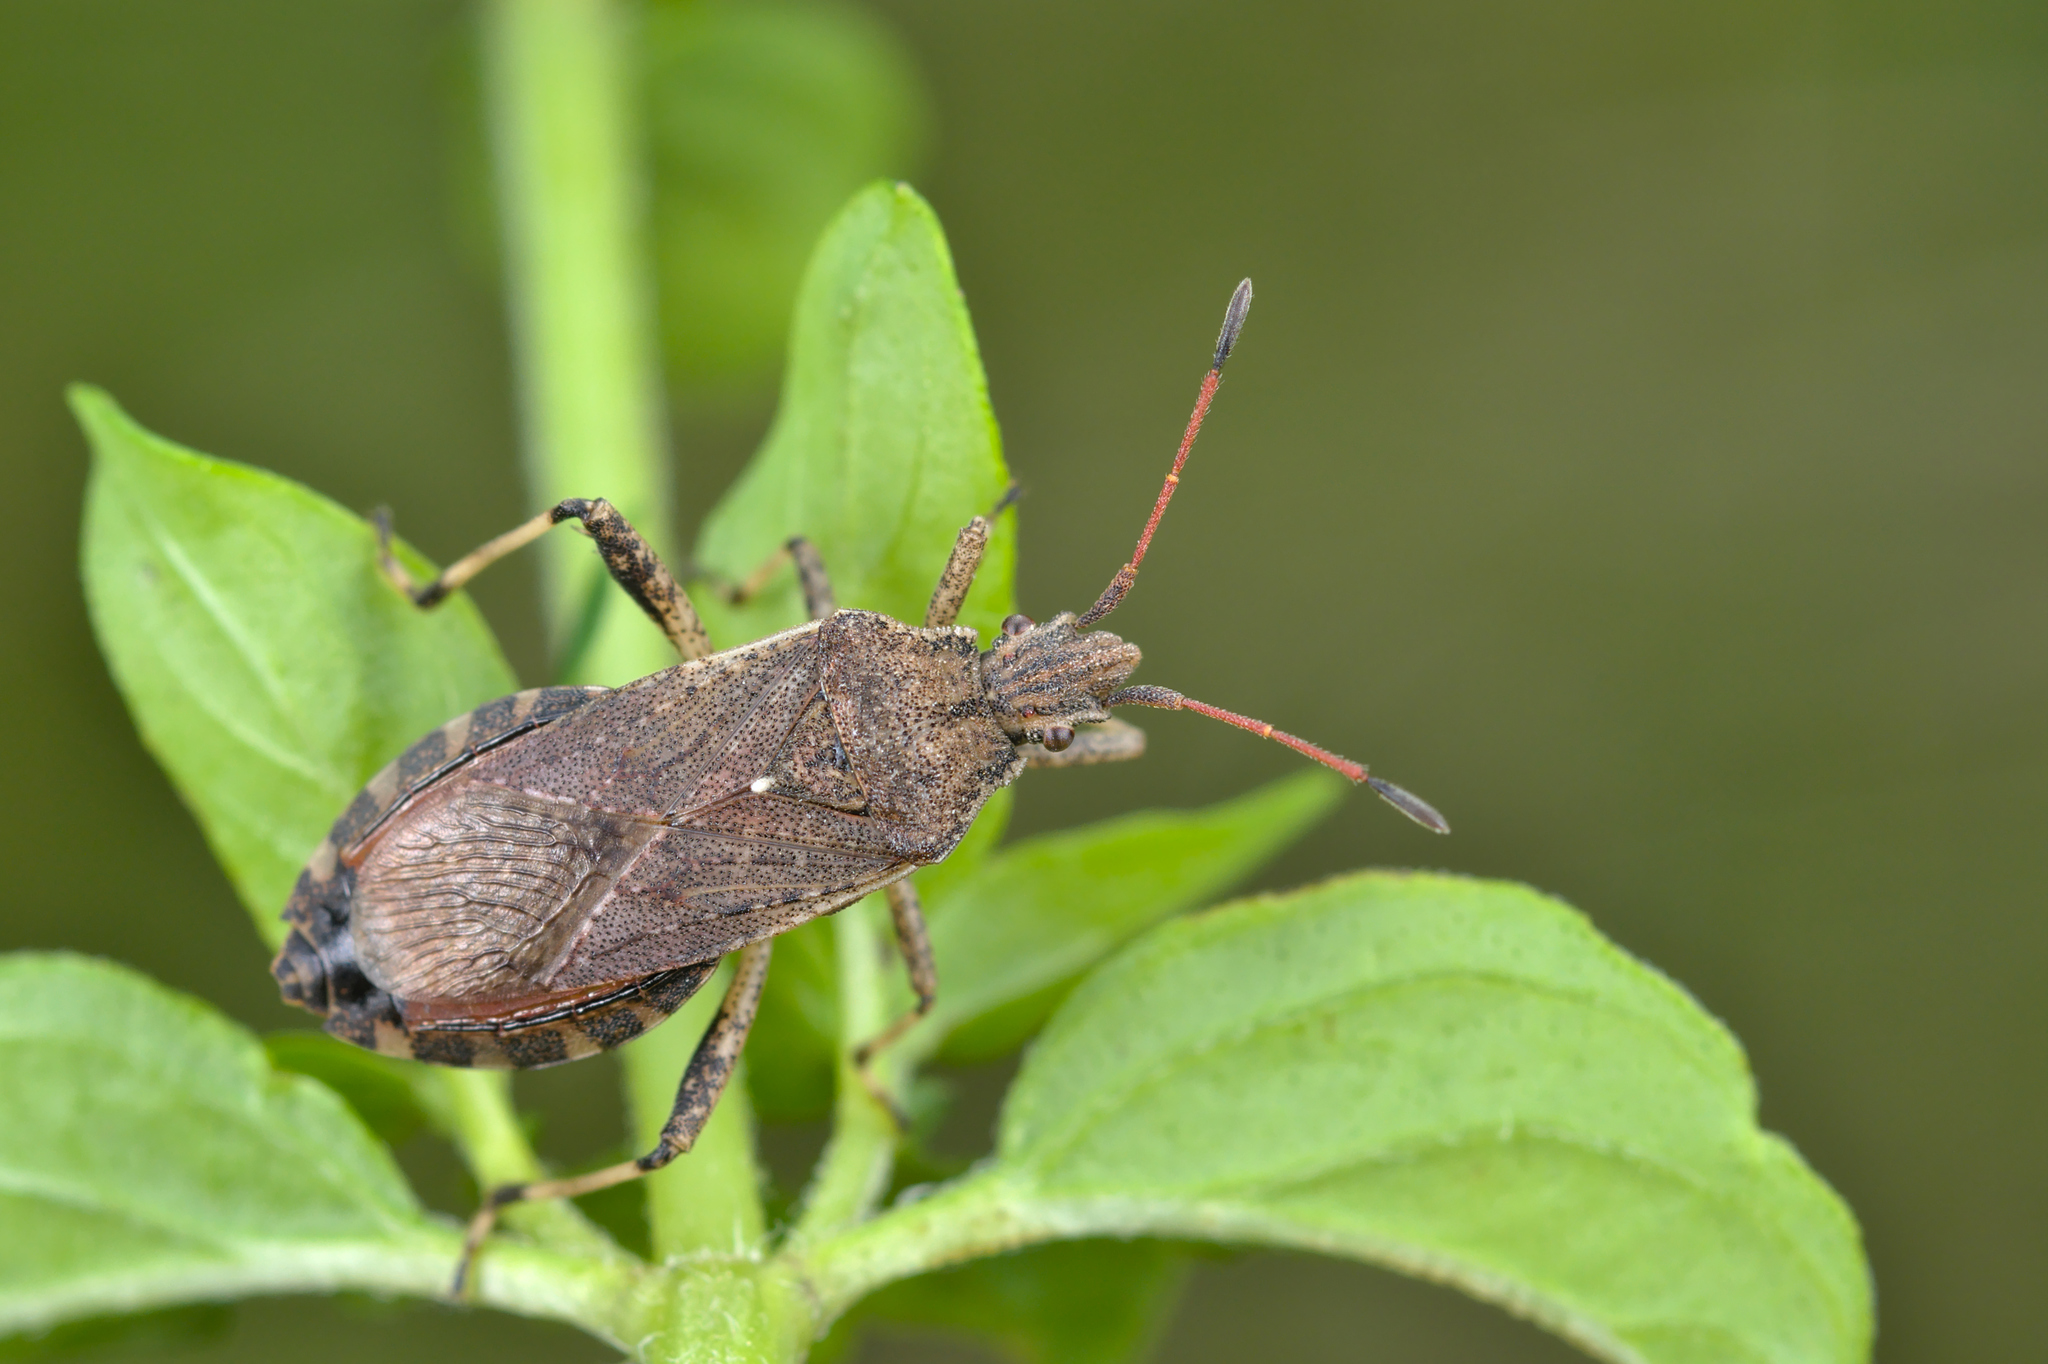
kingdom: Animalia
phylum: Arthropoda
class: Insecta
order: Hemiptera
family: Coreidae
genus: Ceraleptus
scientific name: Ceraleptus gracilicornis
